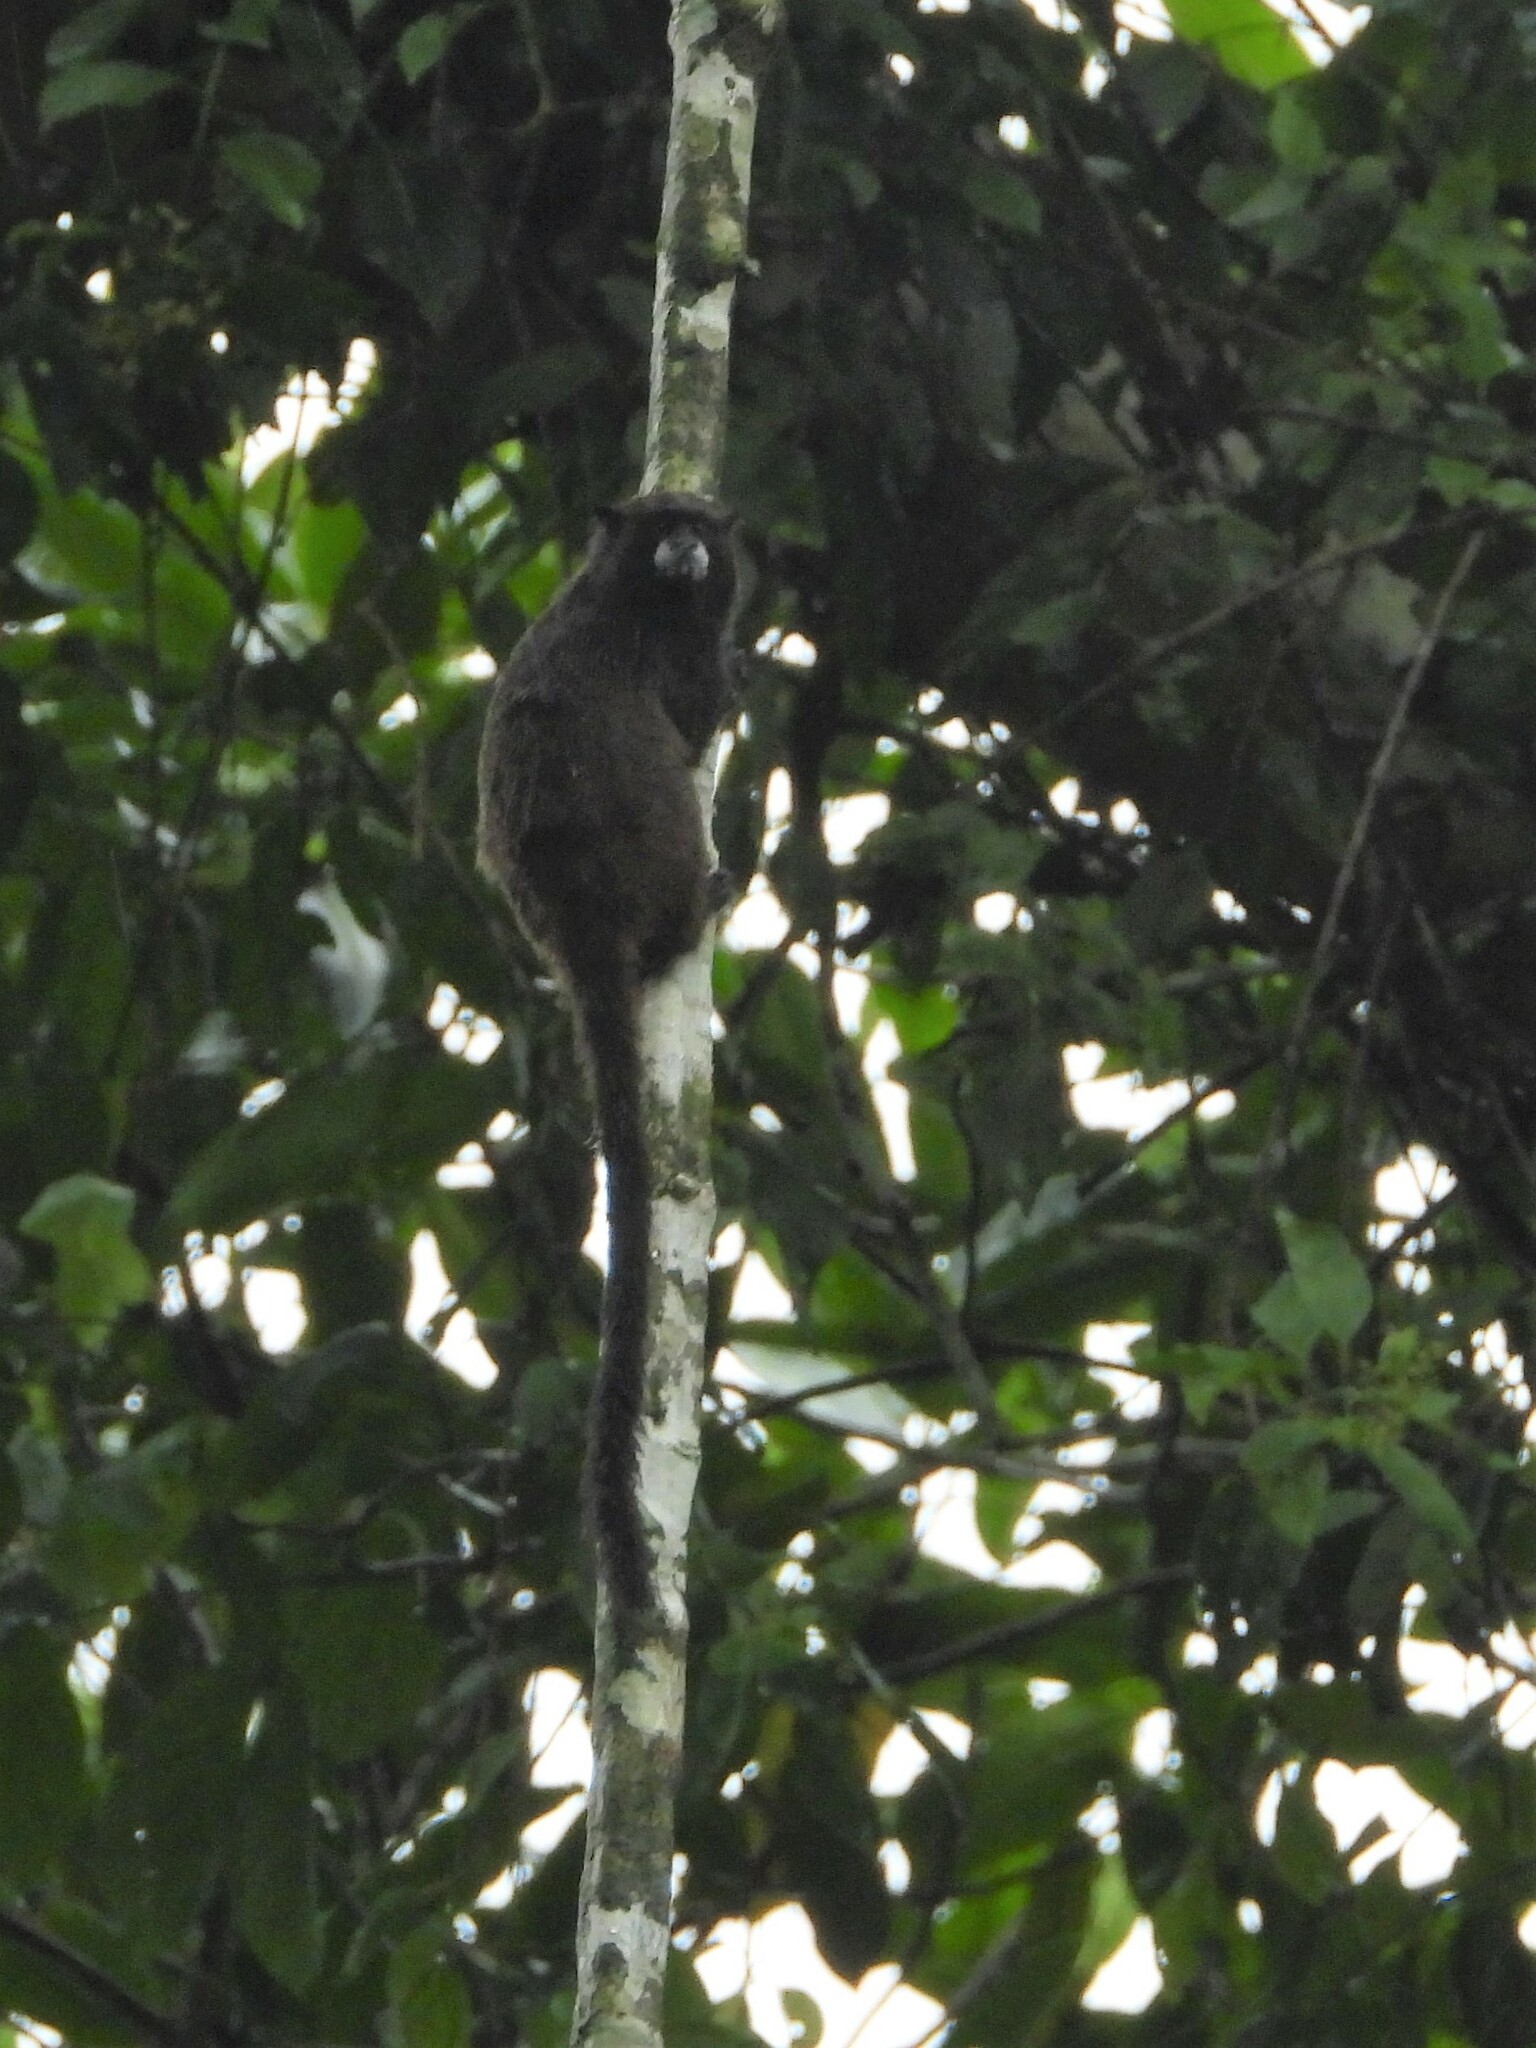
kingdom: Animalia
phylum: Chordata
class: Mammalia
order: Primates
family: Callitrichidae
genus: Leontocebus
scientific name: Leontocebus nigricollis
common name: Black-mantled tamarin
